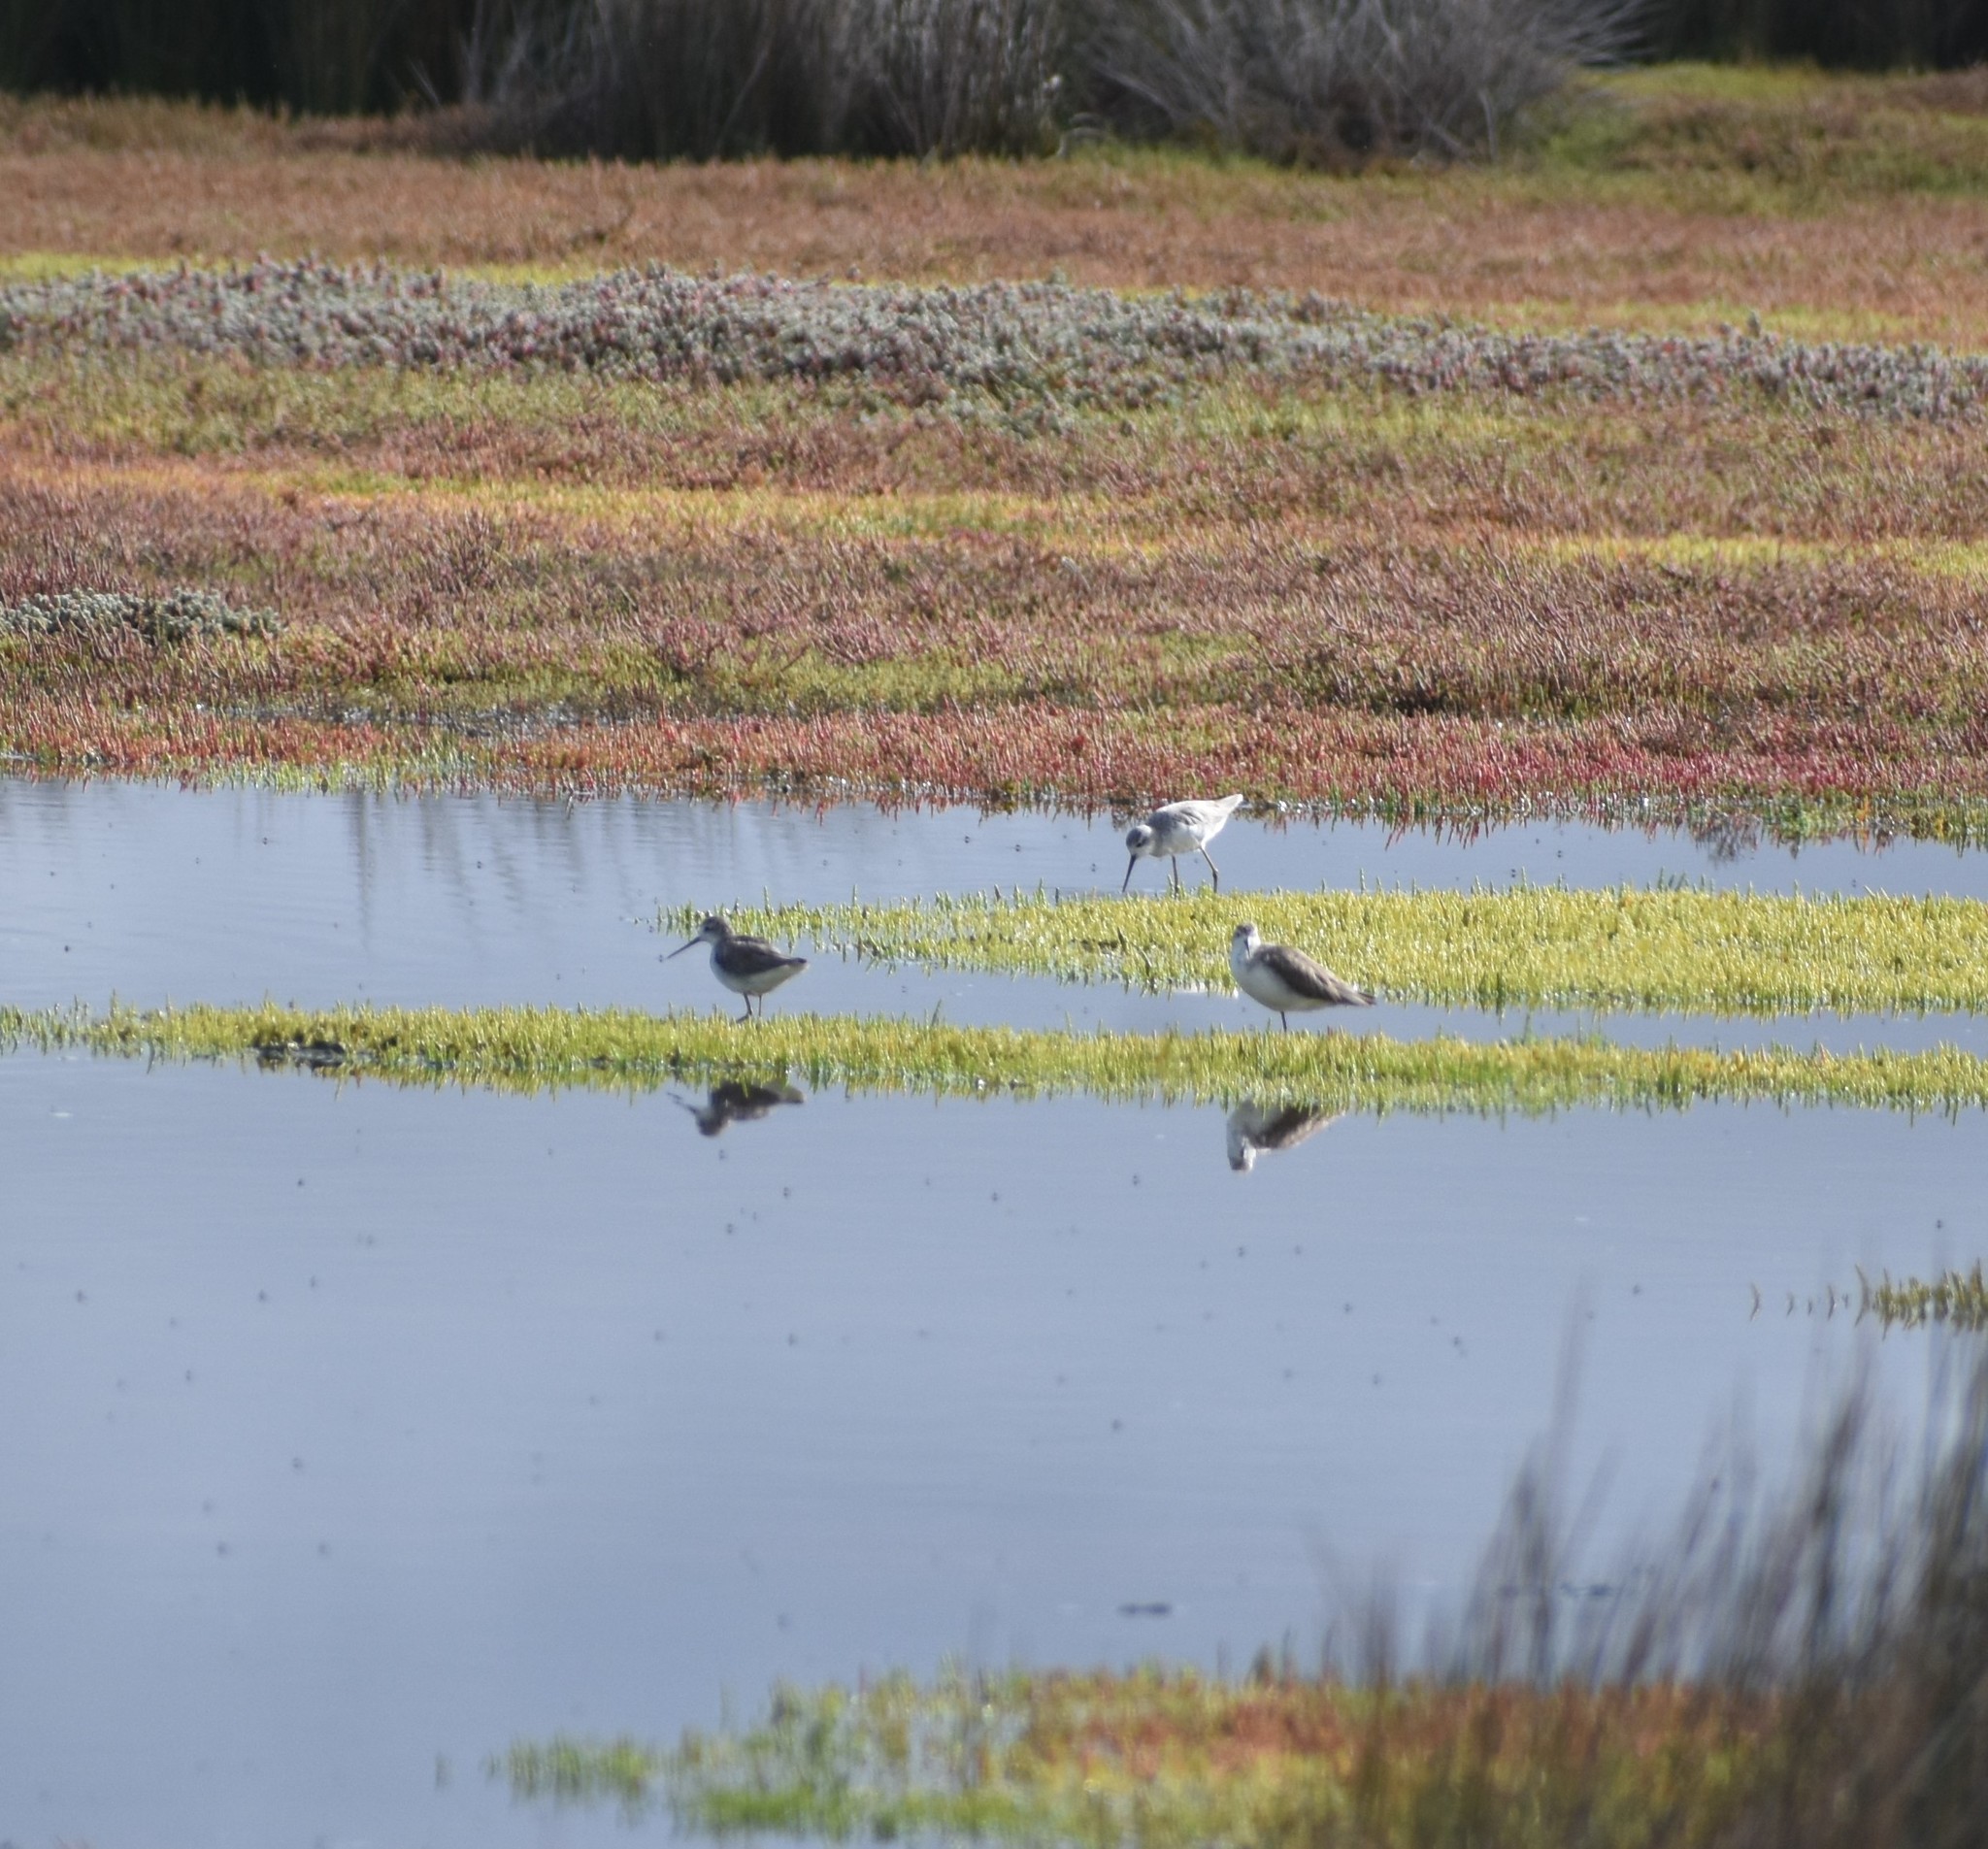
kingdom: Animalia
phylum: Chordata
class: Aves
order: Charadriiformes
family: Scolopacidae
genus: Tringa
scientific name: Tringa stagnatilis
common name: Marsh sandpiper
